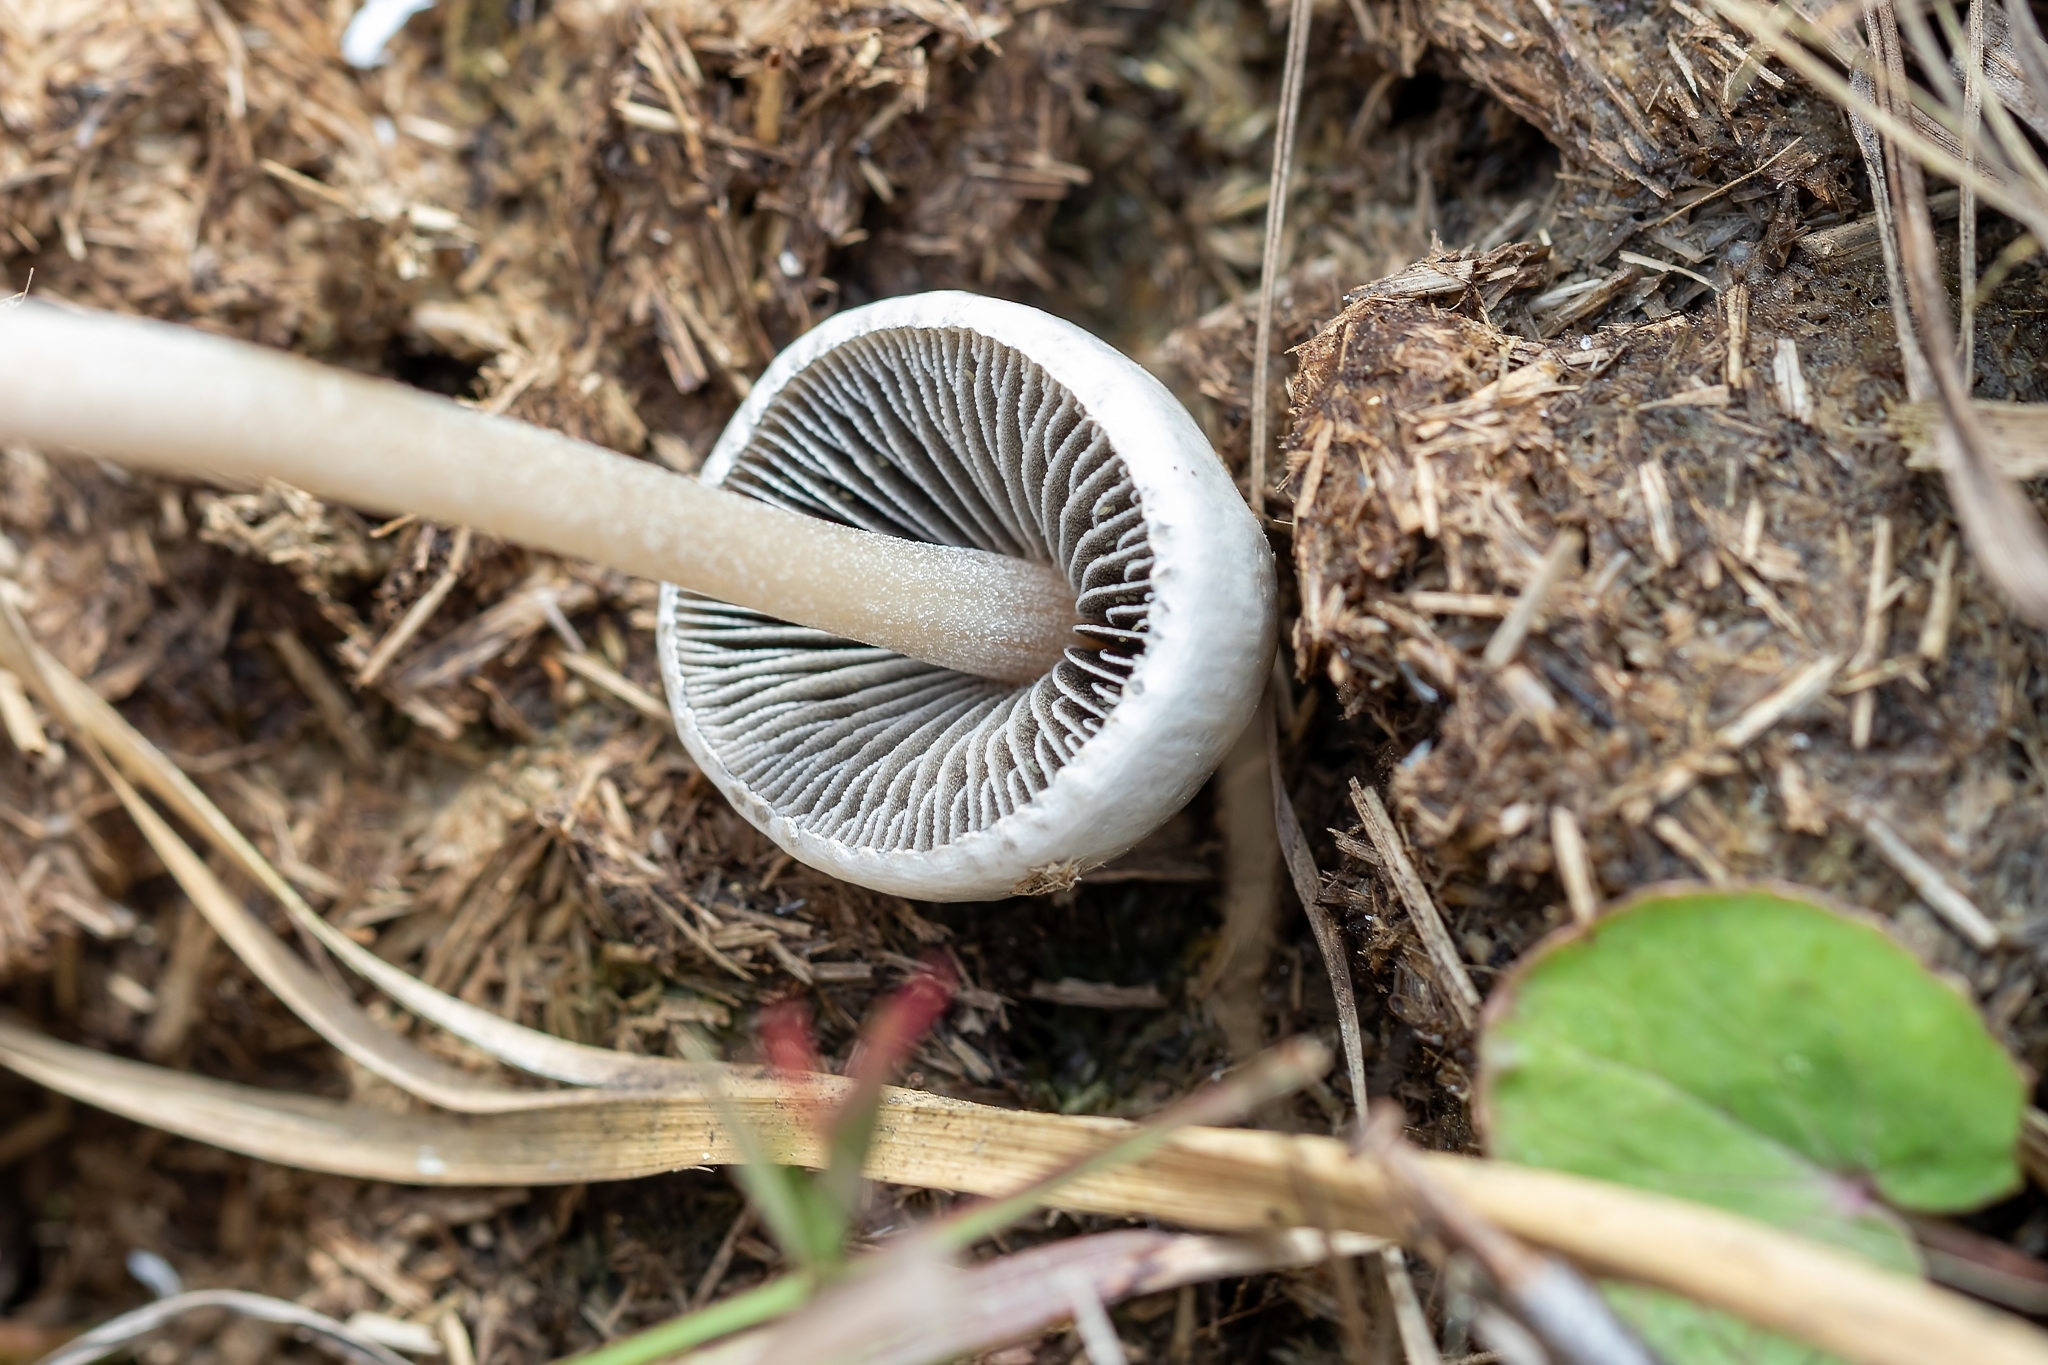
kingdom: Fungi
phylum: Basidiomycota
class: Agaricomycetes
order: Agaricales
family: Bolbitiaceae
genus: Panaeolus
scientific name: Panaeolus antillarum
